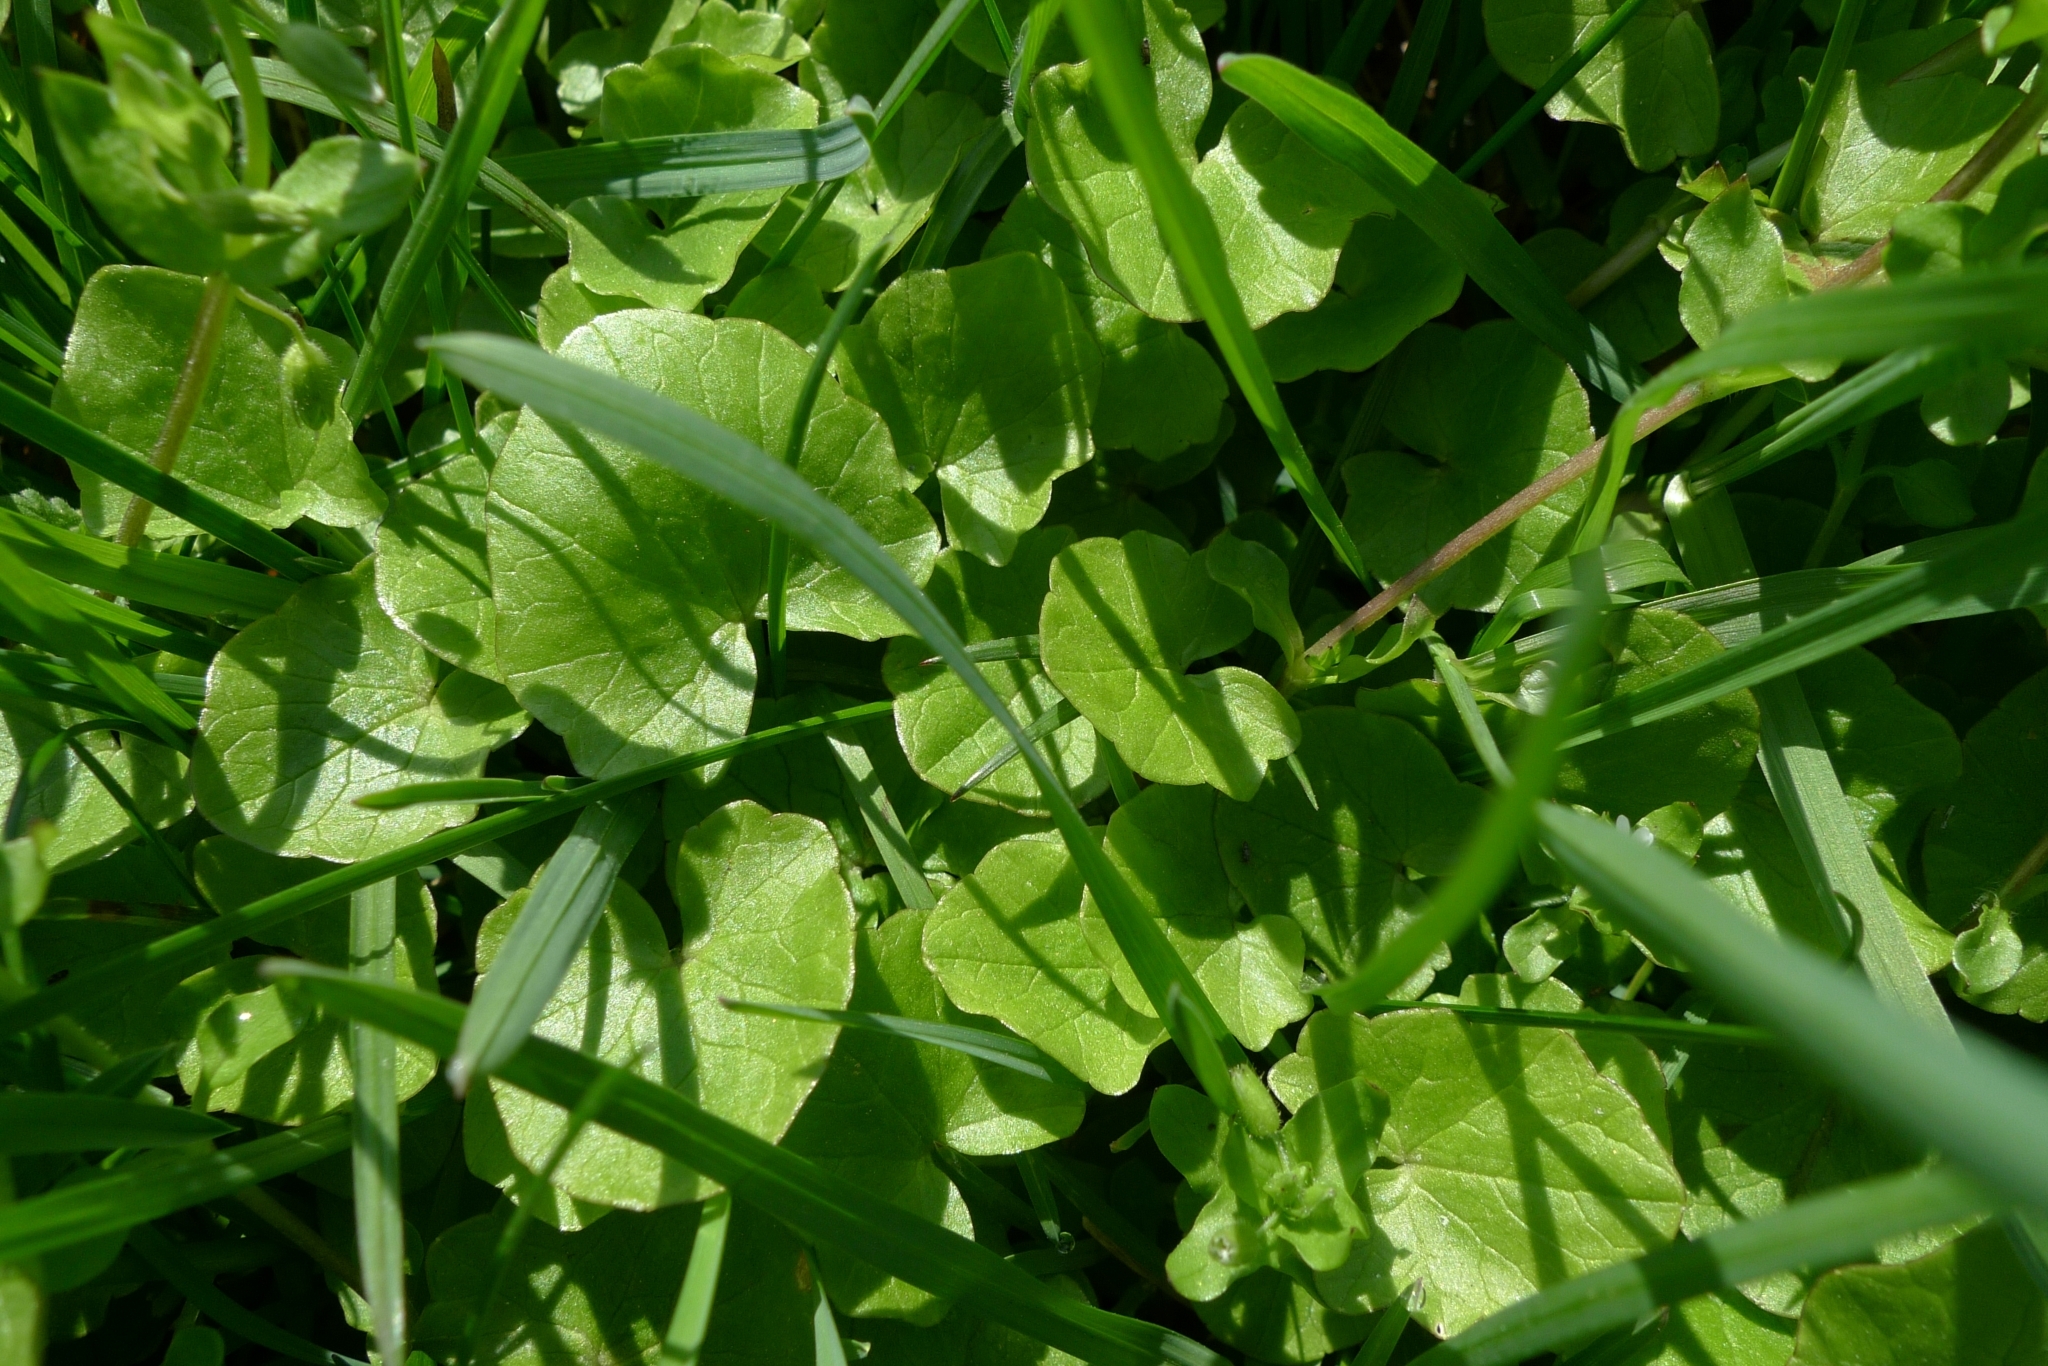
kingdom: Plantae
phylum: Tracheophyta
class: Magnoliopsida
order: Ranunculales
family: Ranunculaceae
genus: Ficaria
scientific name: Ficaria verna
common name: Lesser celandine
